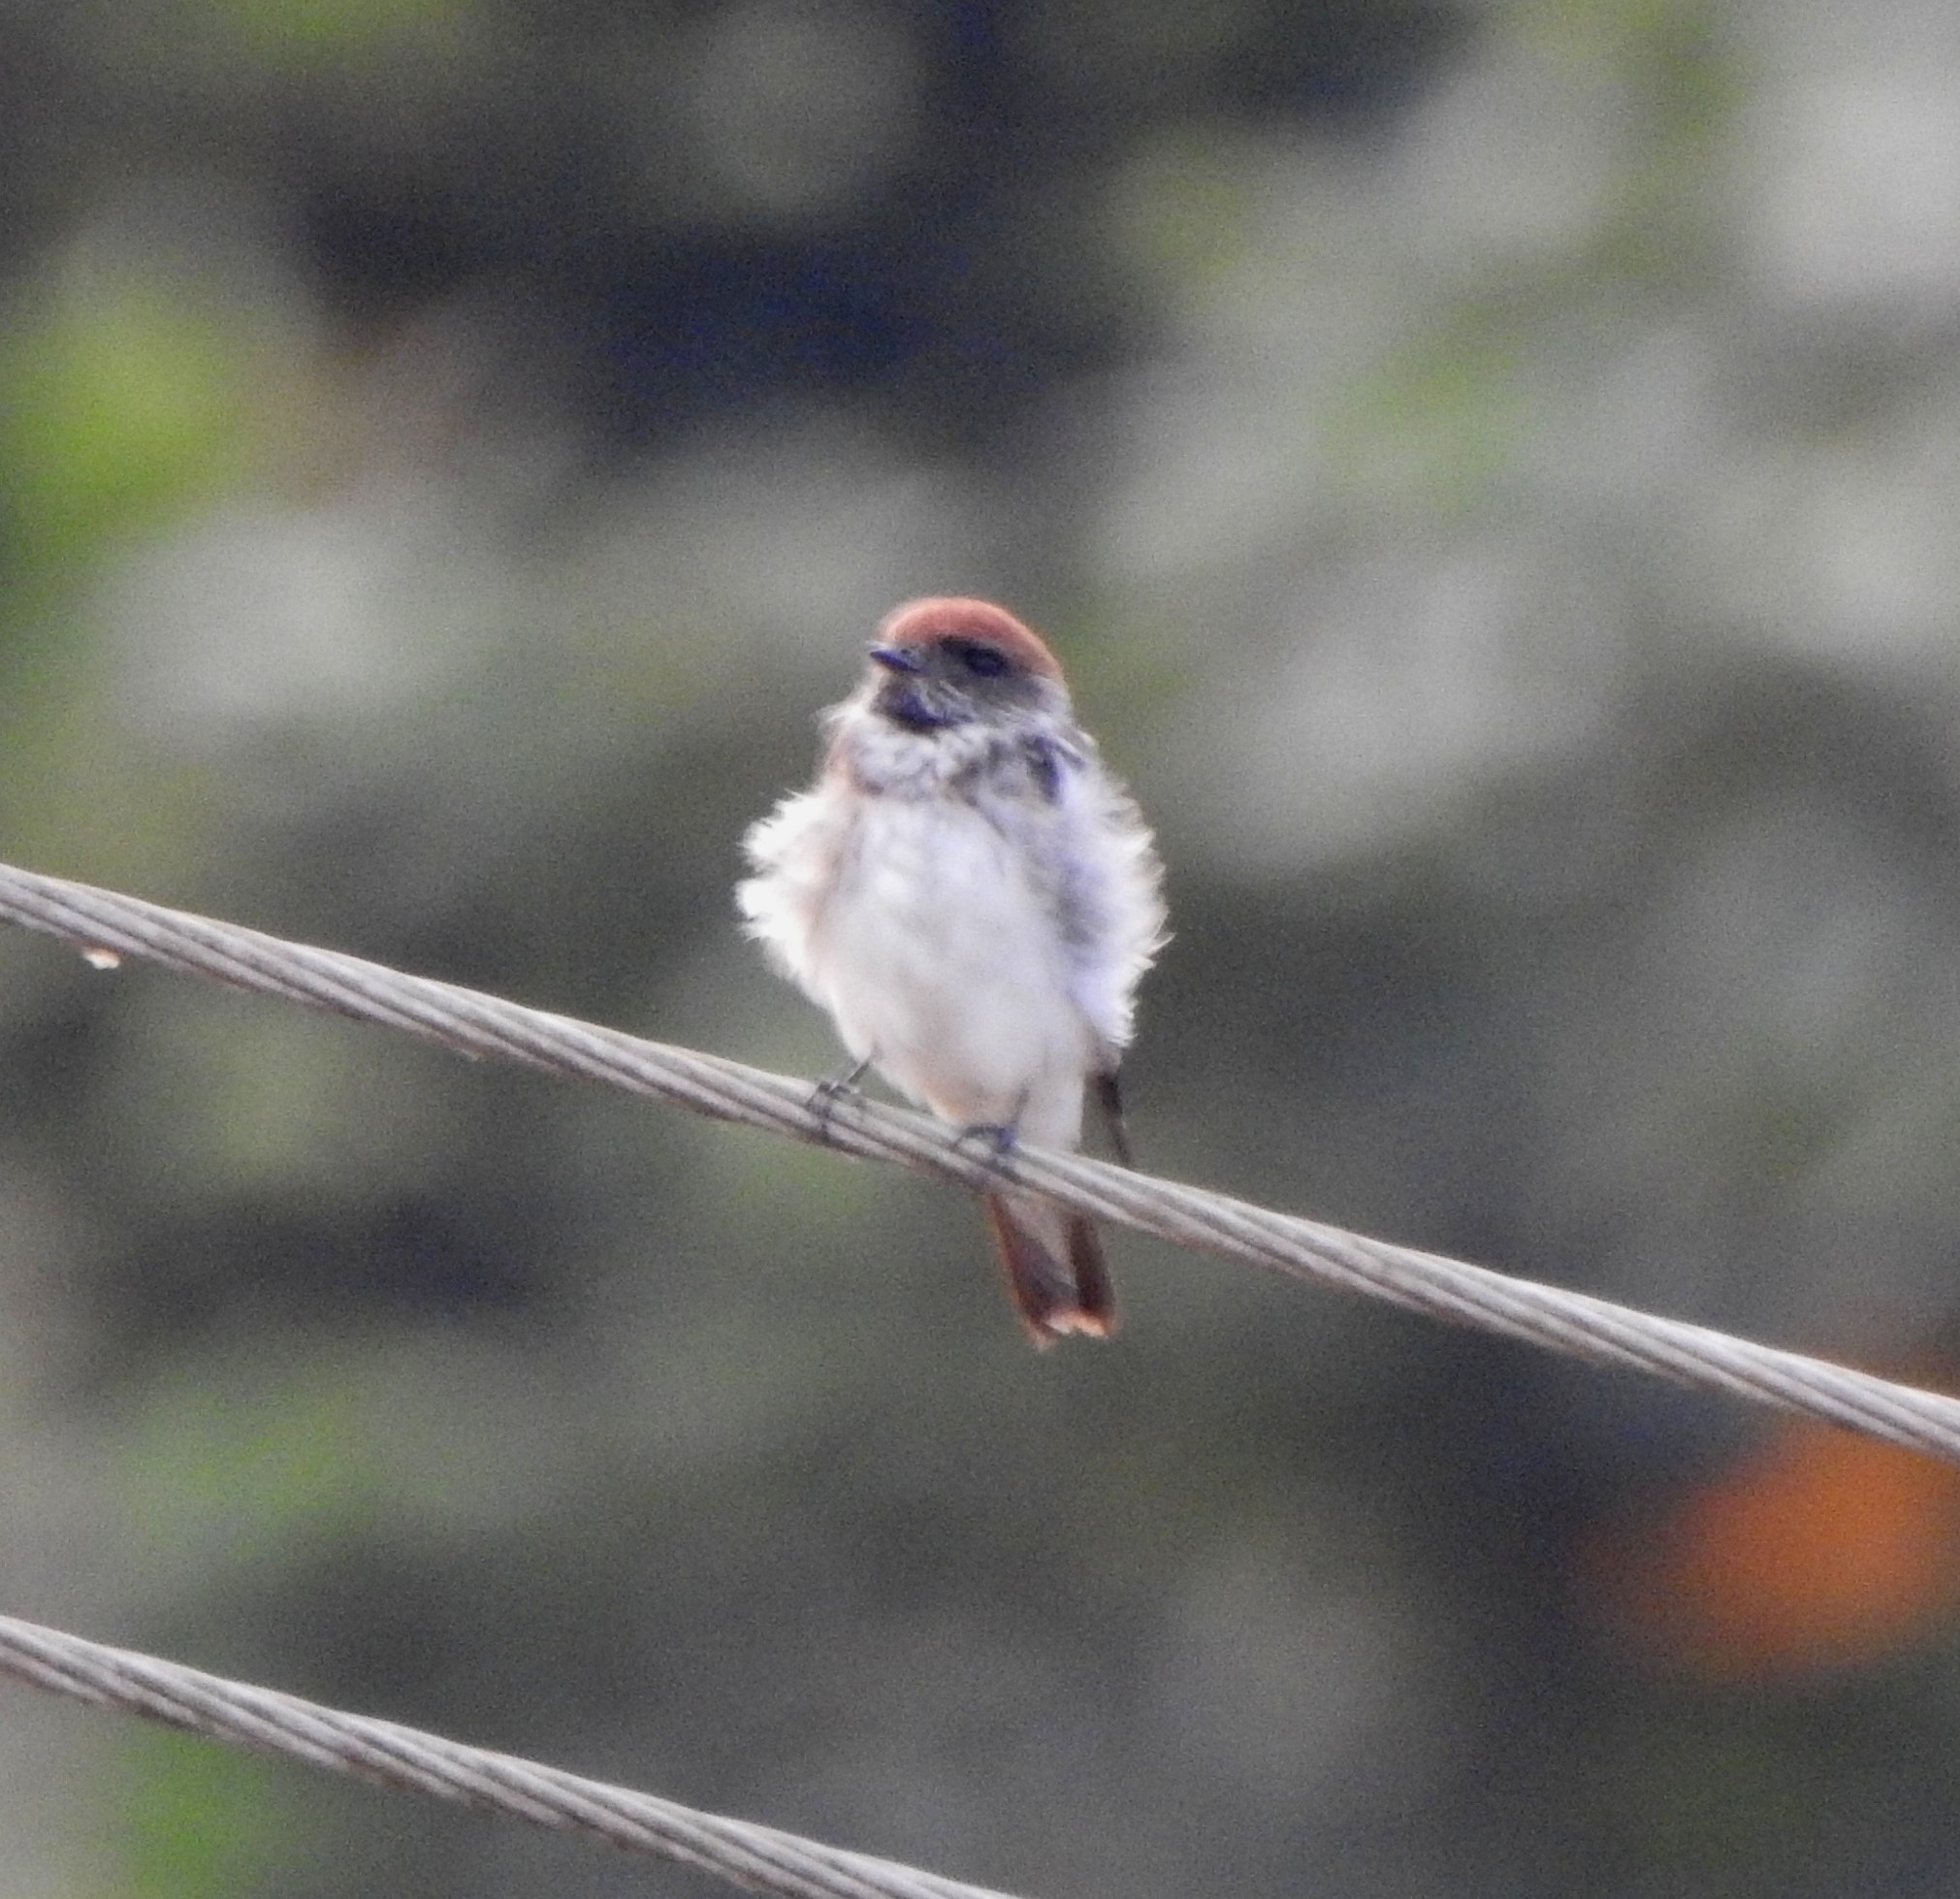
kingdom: Animalia
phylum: Chordata
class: Aves
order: Passeriformes
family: Hirundinidae
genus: Petrochelidon
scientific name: Petrochelidon fluvicola
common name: Streak-throated swallow
